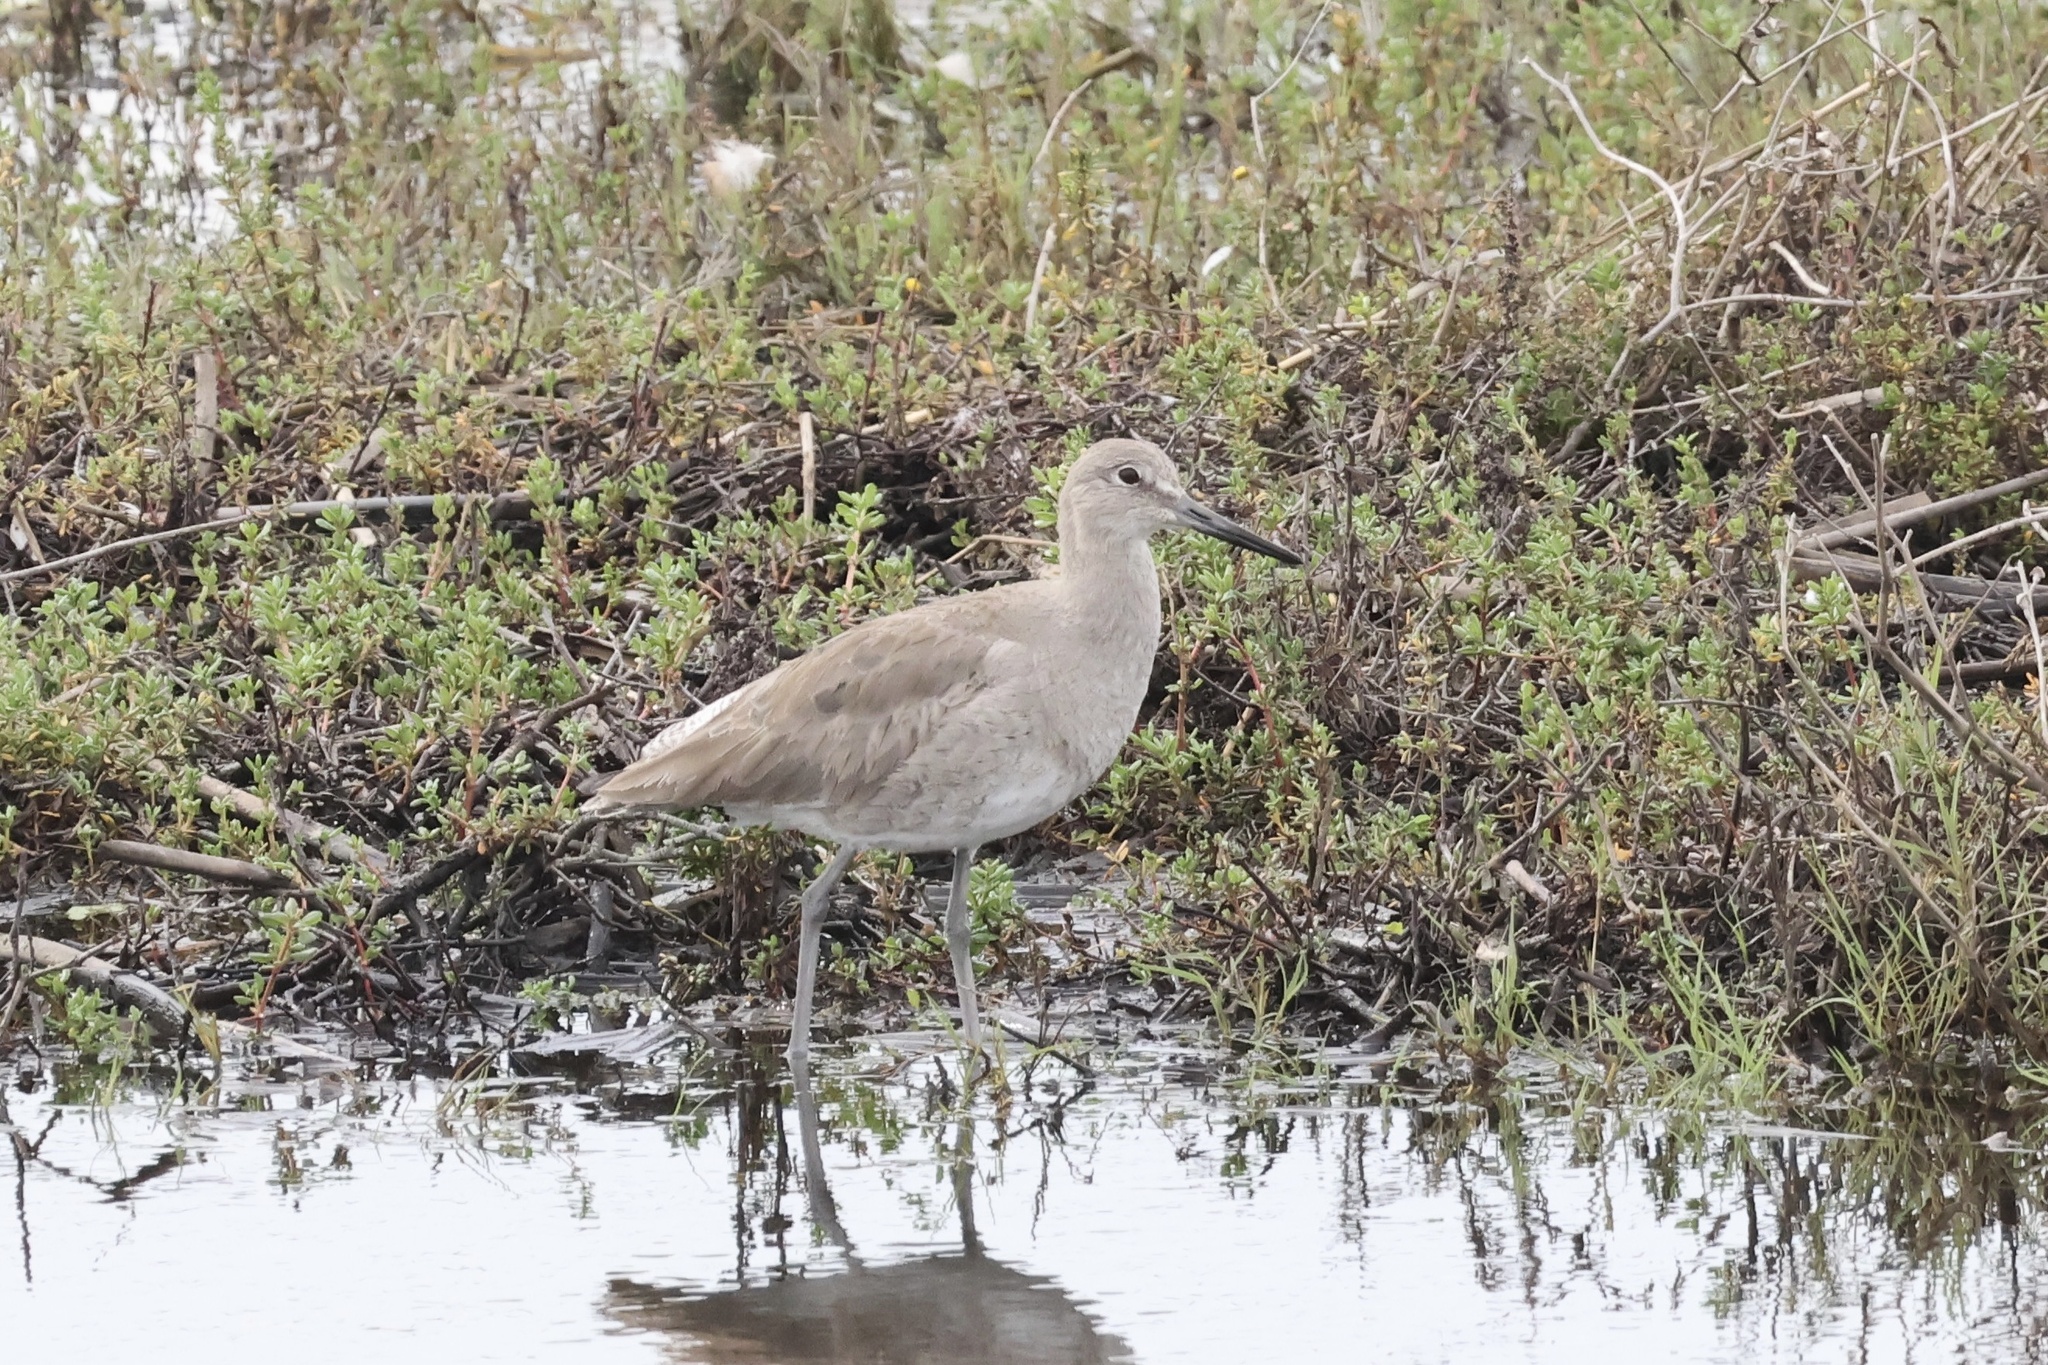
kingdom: Animalia
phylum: Chordata
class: Aves
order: Charadriiformes
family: Scolopacidae
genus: Tringa
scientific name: Tringa semipalmata
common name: Willet
